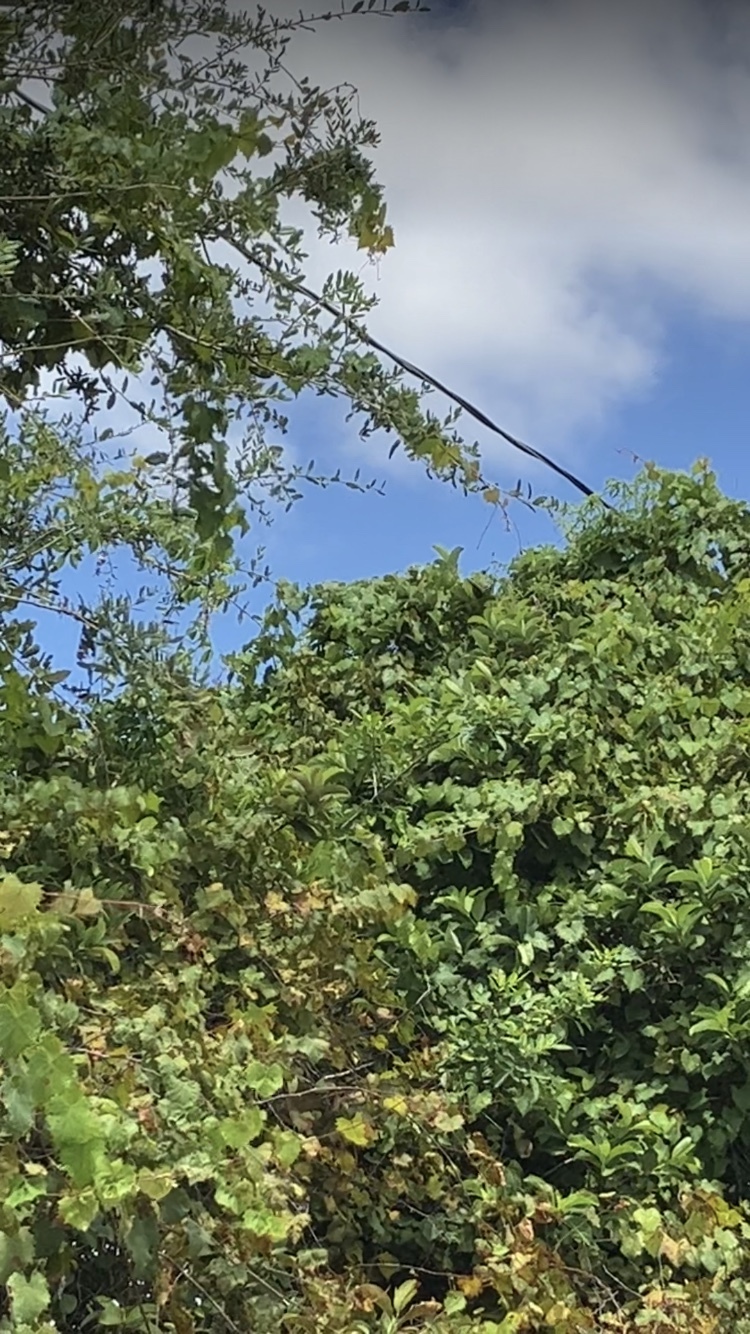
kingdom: Animalia
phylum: Arthropoda
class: Insecta
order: Lepidoptera
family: Papilionidae
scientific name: Papilionidae
